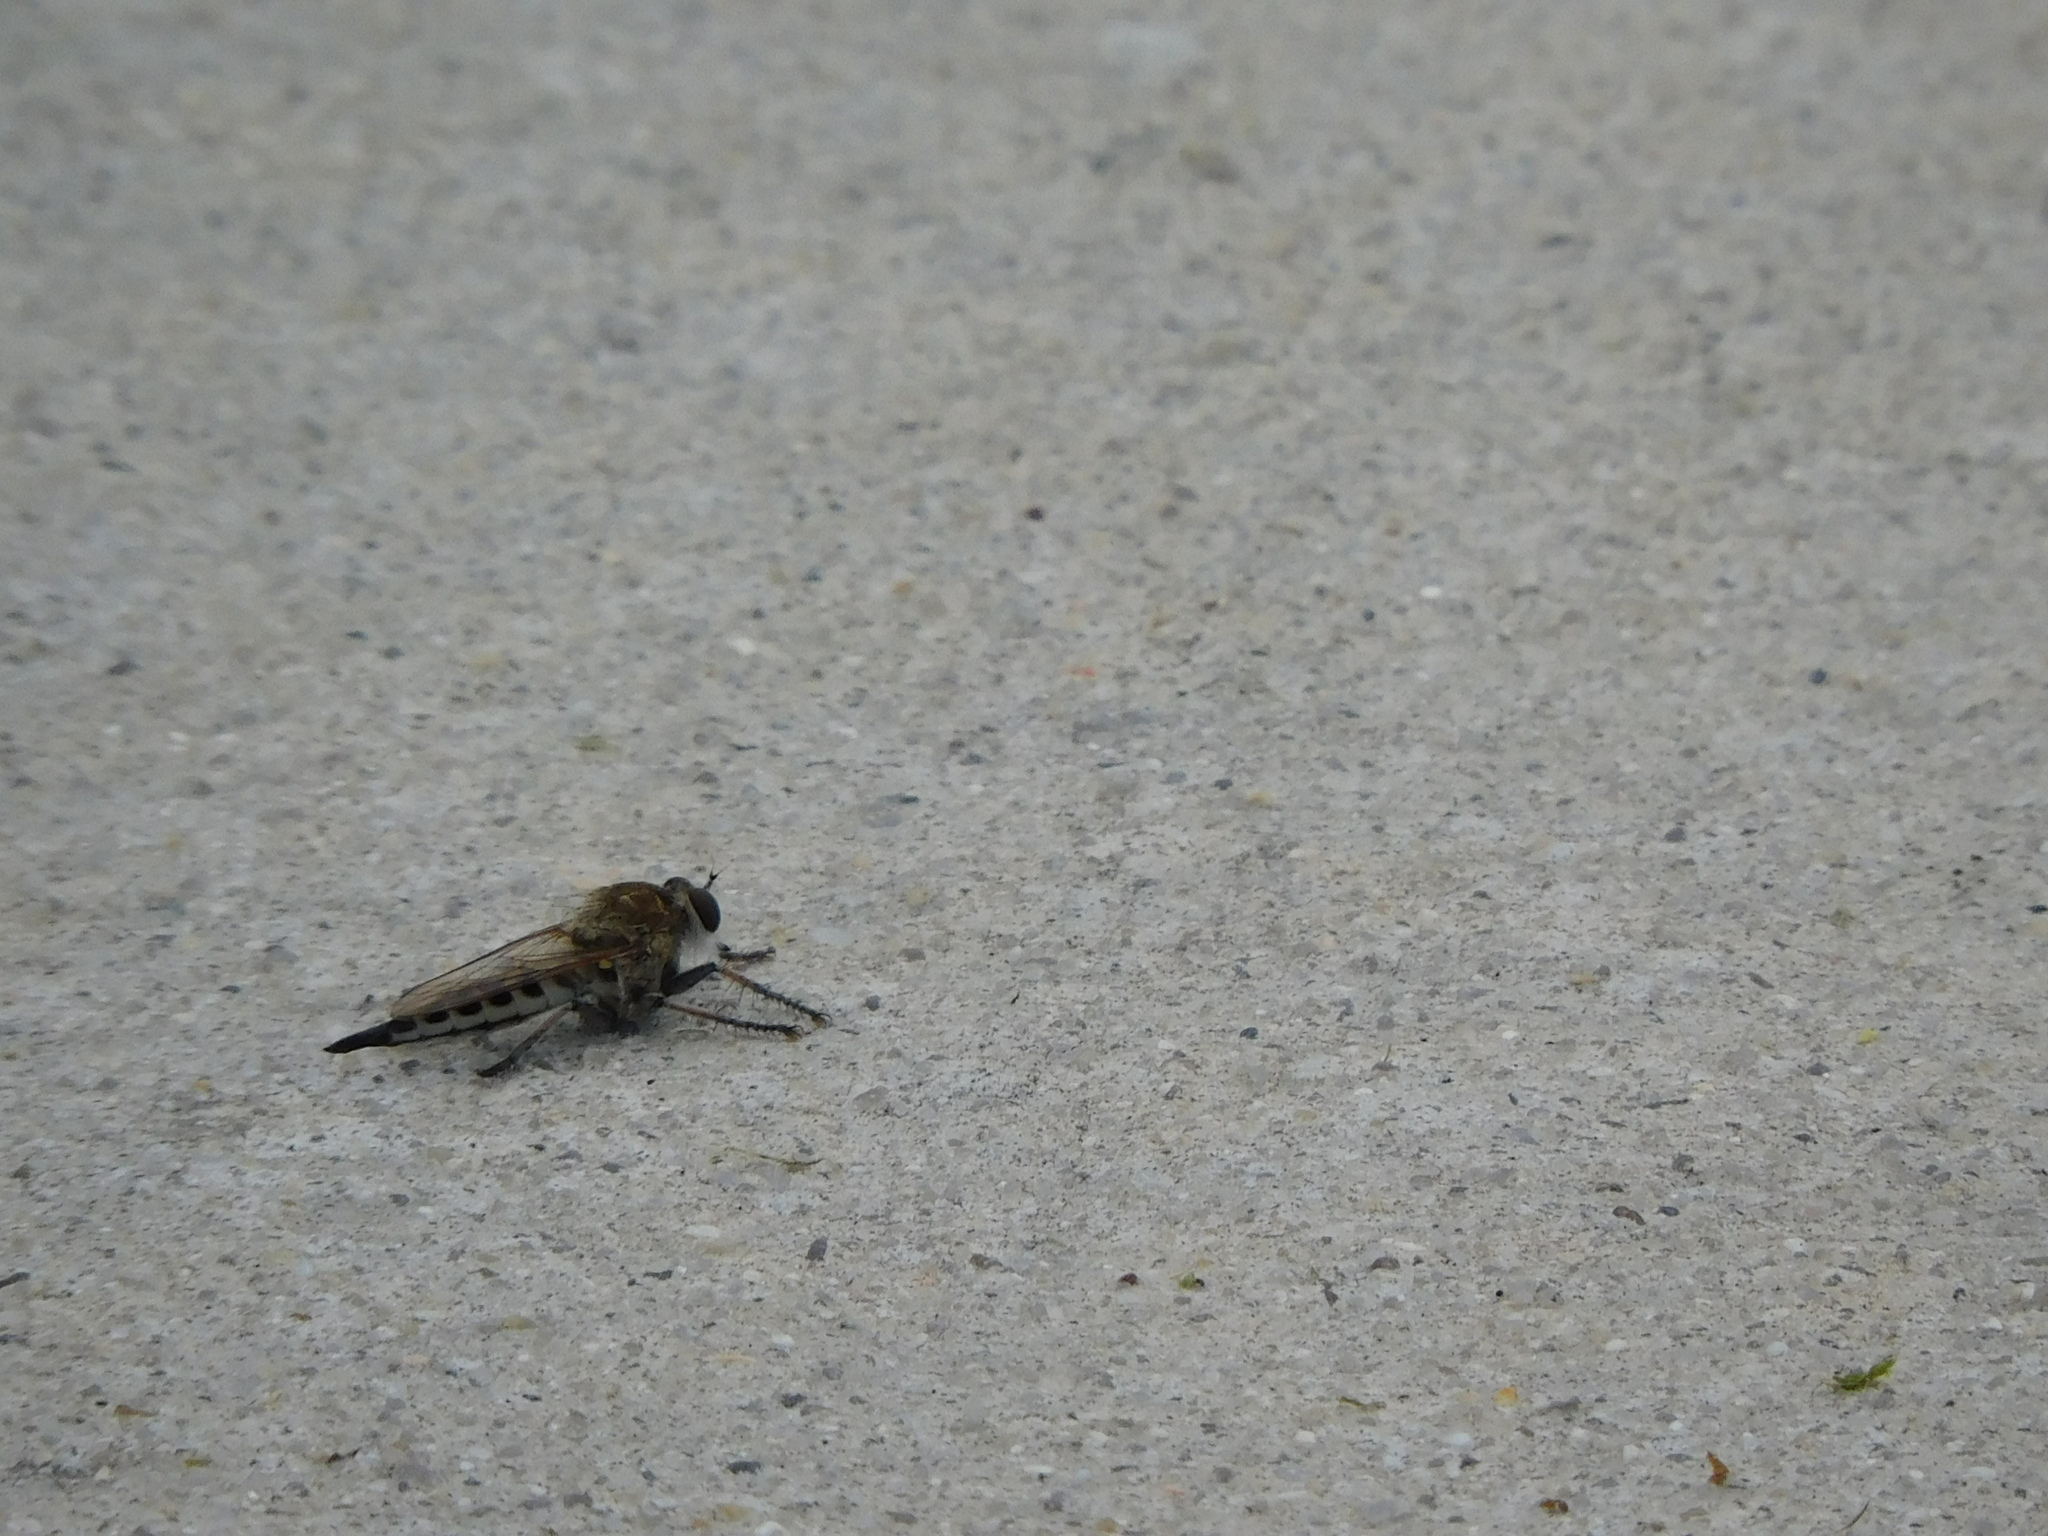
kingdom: Animalia
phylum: Arthropoda
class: Insecta
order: Diptera
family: Asilidae
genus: Efferia
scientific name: Efferia albibarbis
